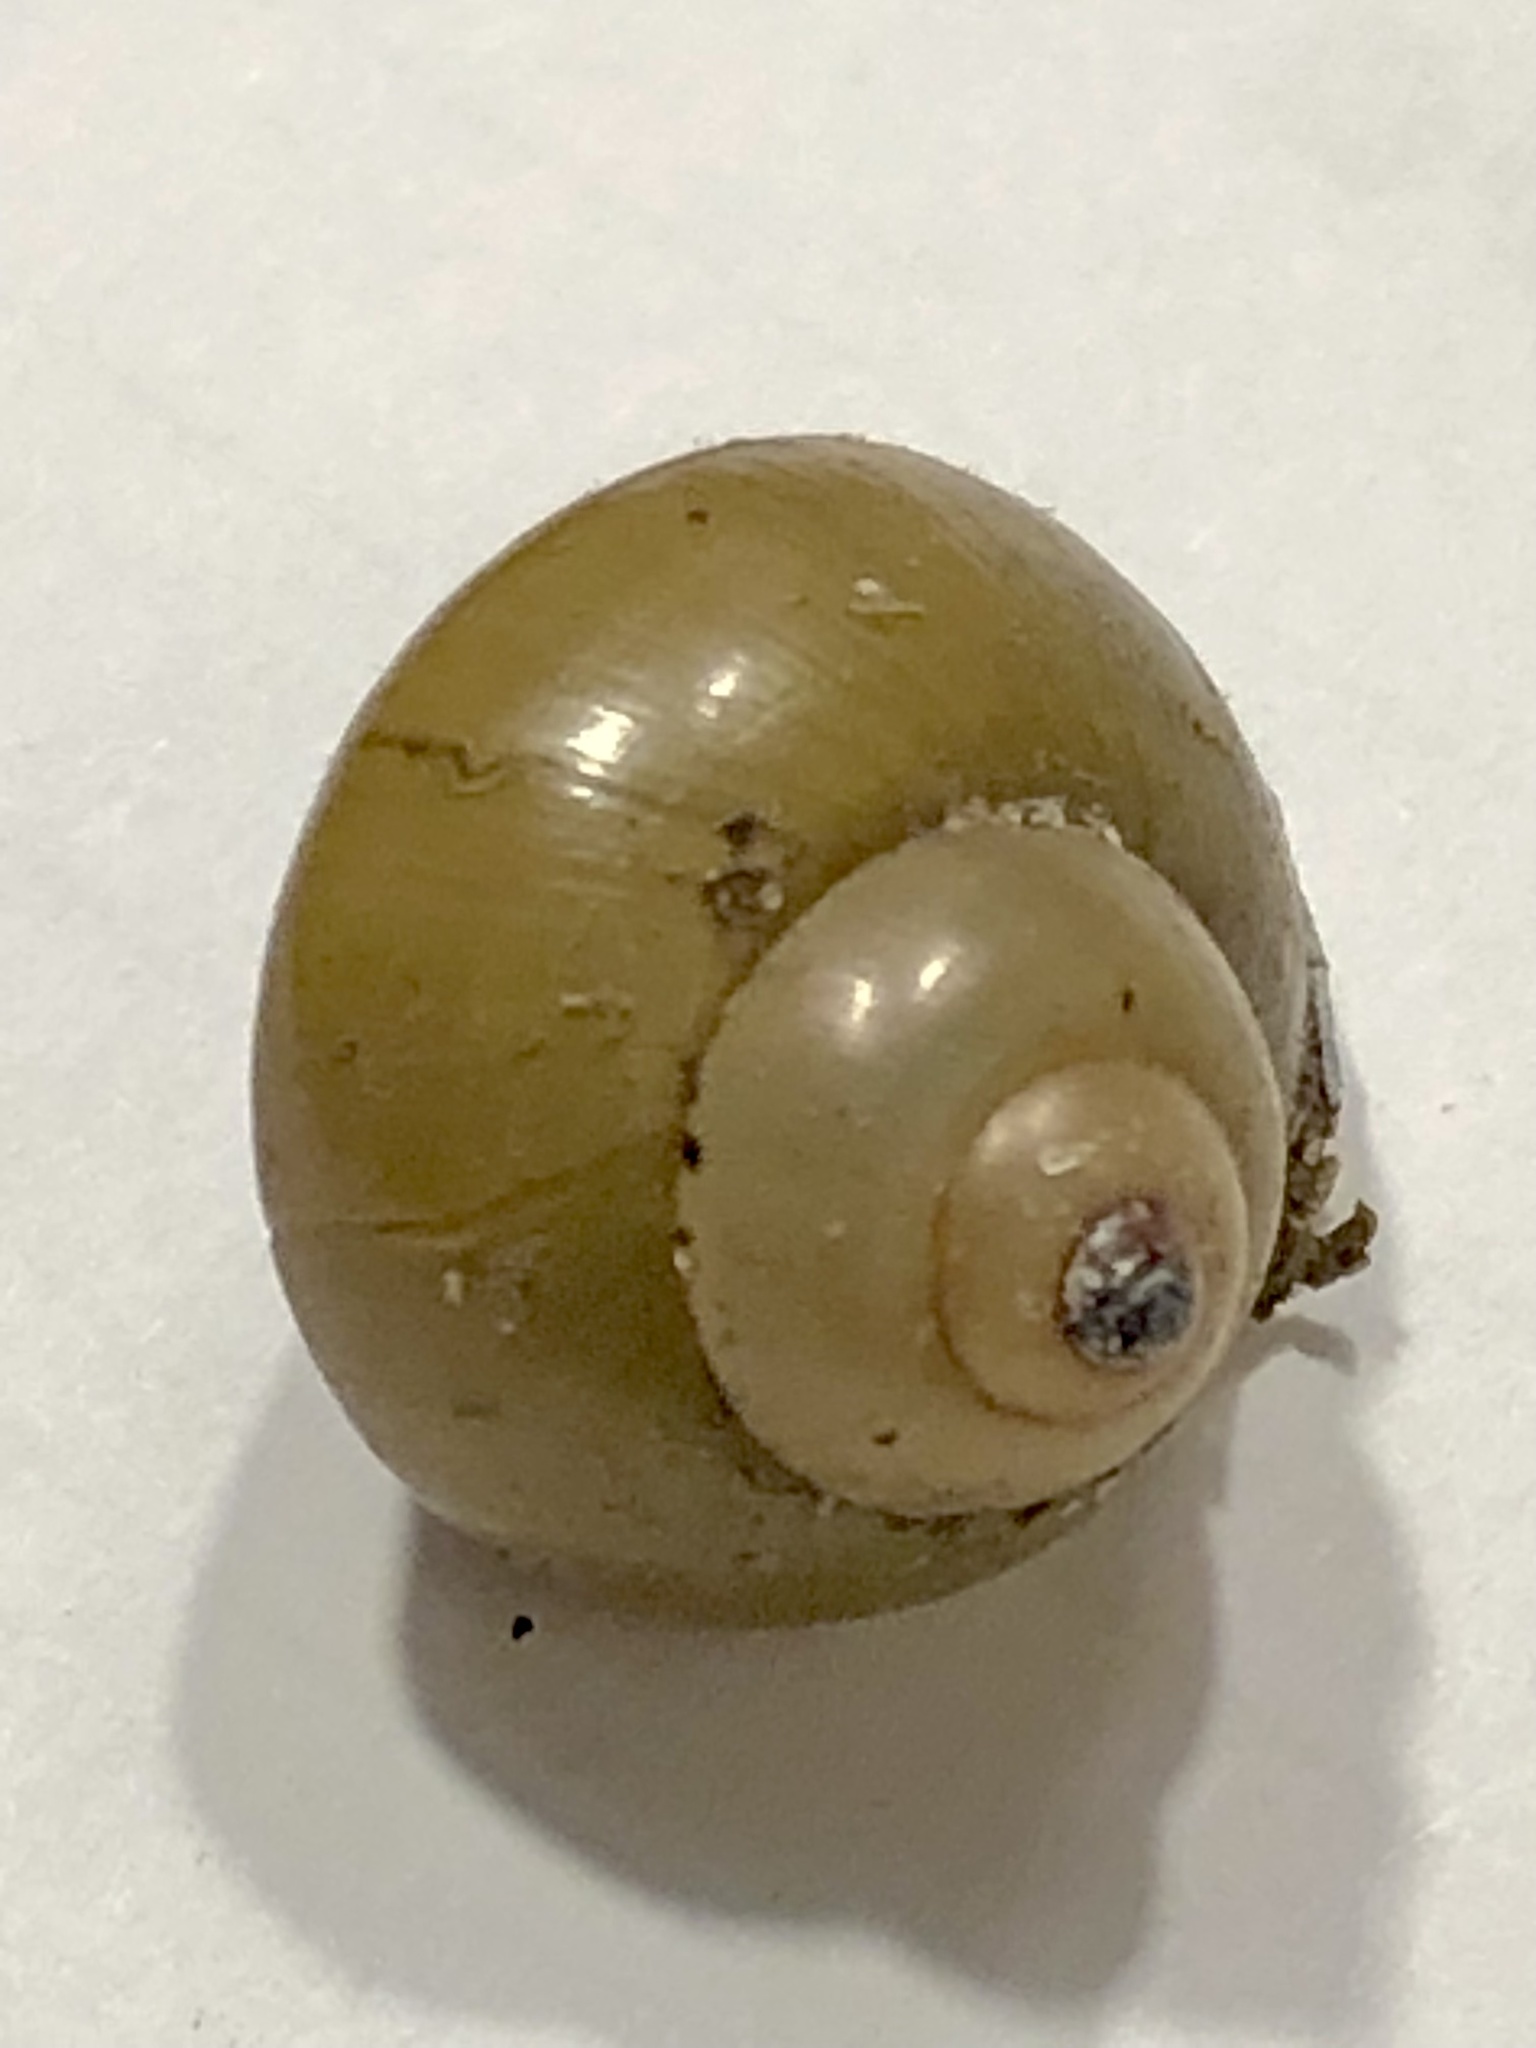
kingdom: Animalia
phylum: Mollusca
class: Gastropoda
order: Architaenioglossa
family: Viviparidae
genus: Cipangopaludina
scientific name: Cipangopaludina chinensis
